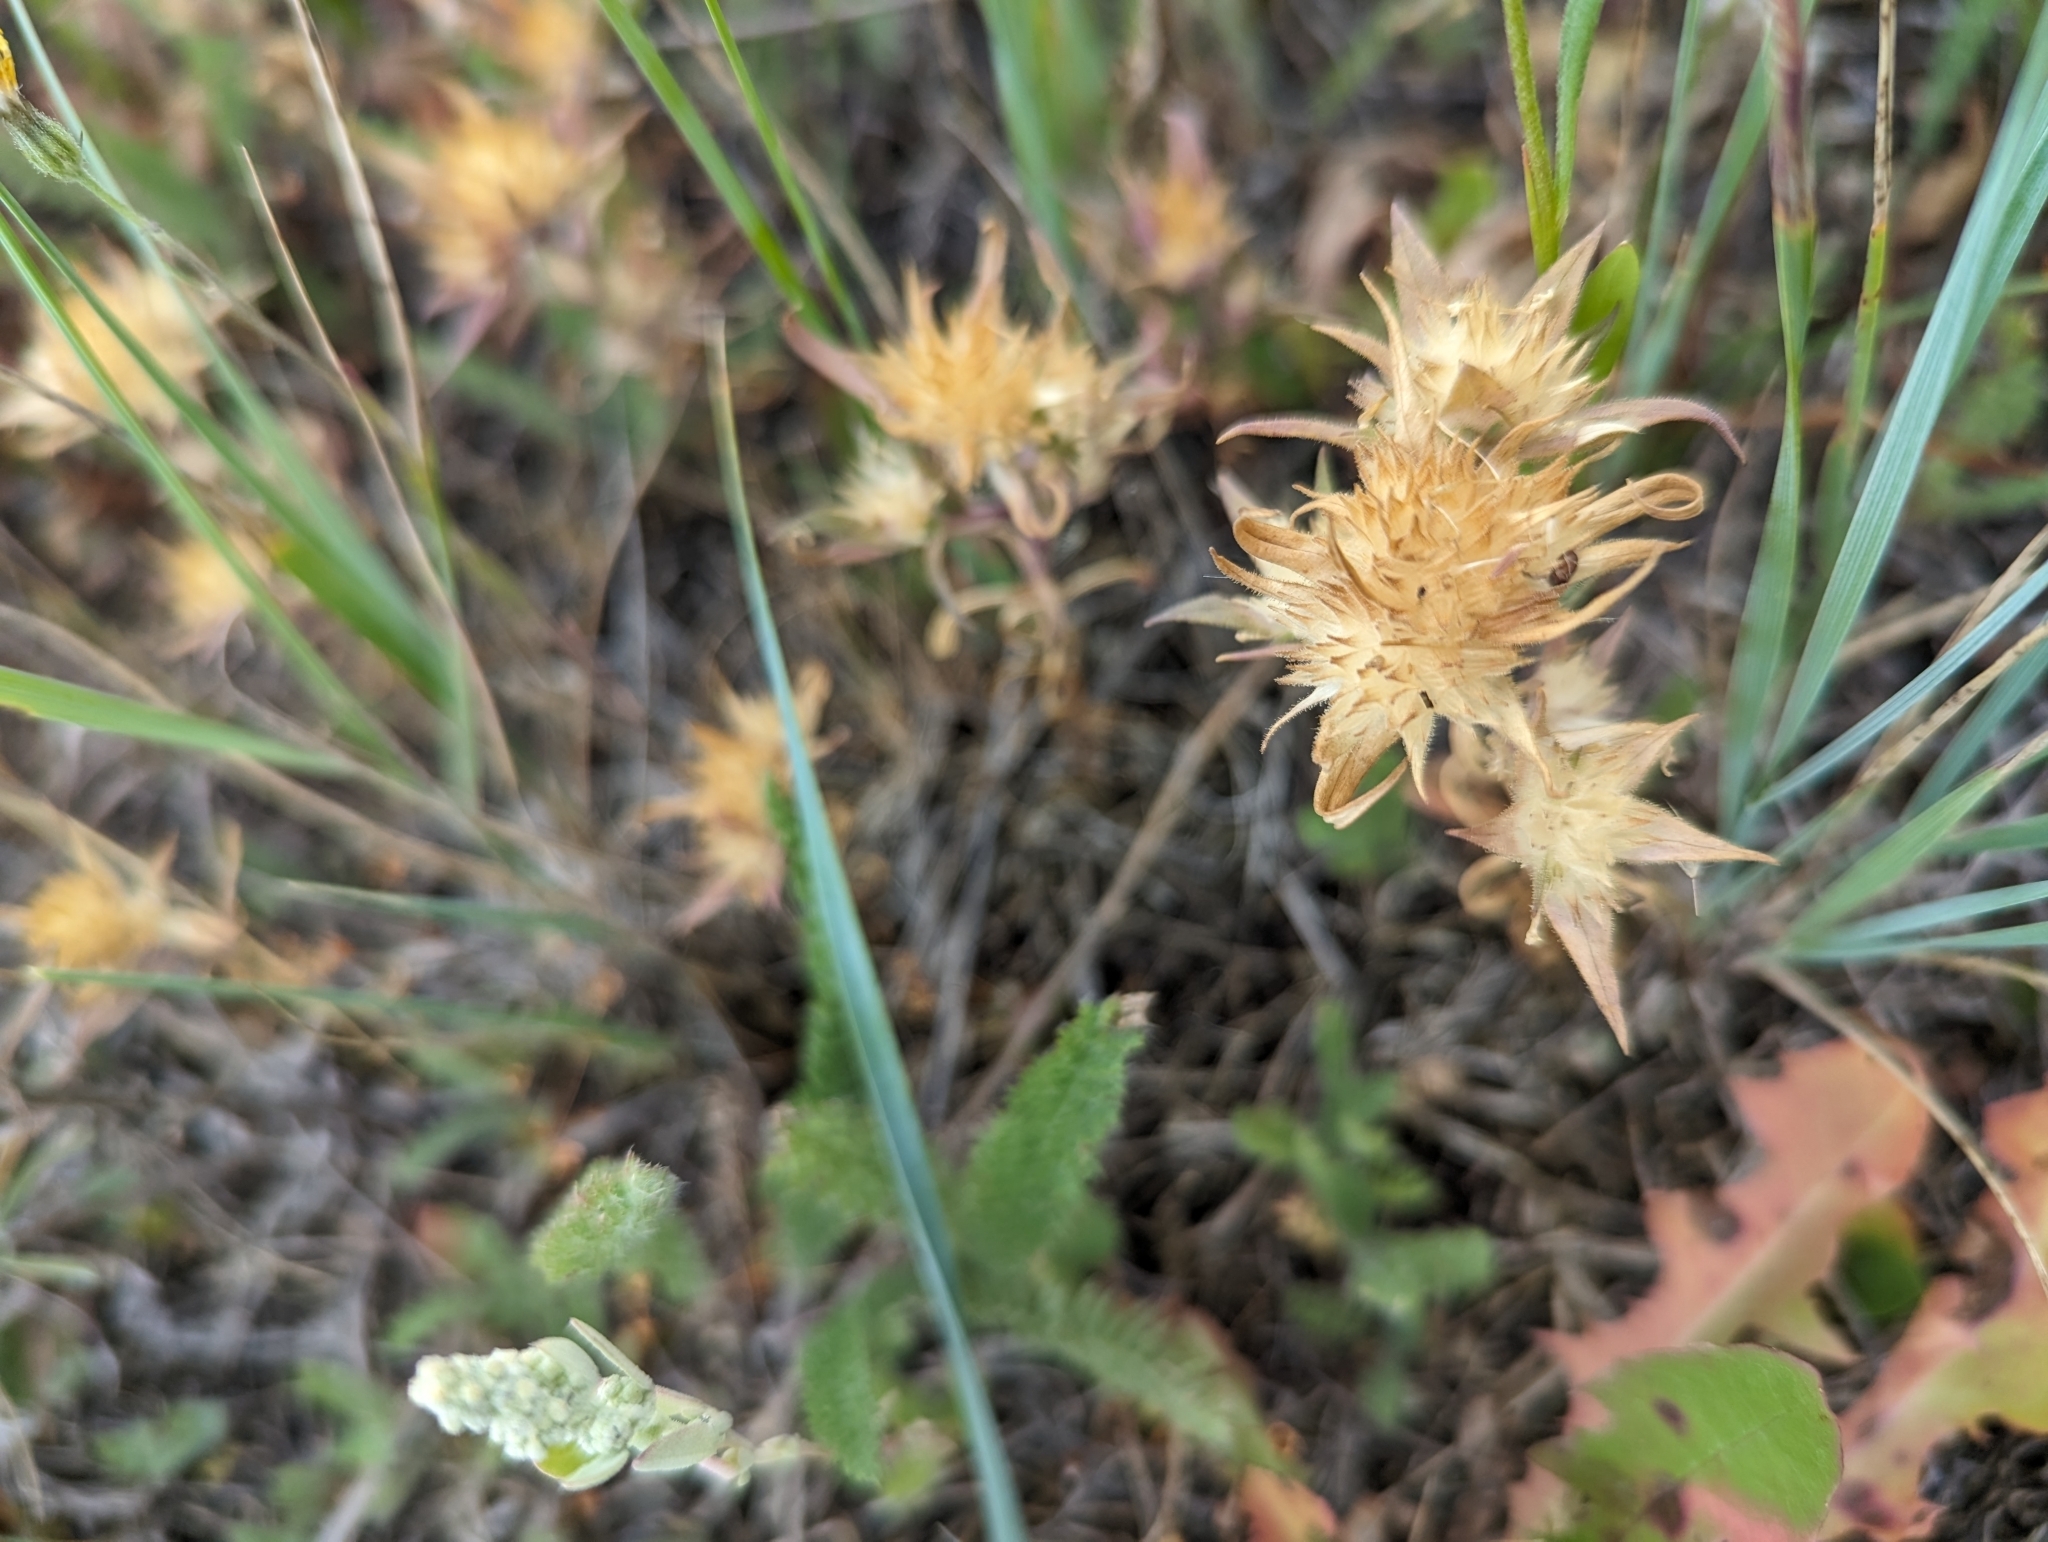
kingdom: Plantae
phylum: Tracheophyta
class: Magnoliopsida
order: Ericales
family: Polemoniaceae
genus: Collomia
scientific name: Collomia linearis
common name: Tiny trumpet
